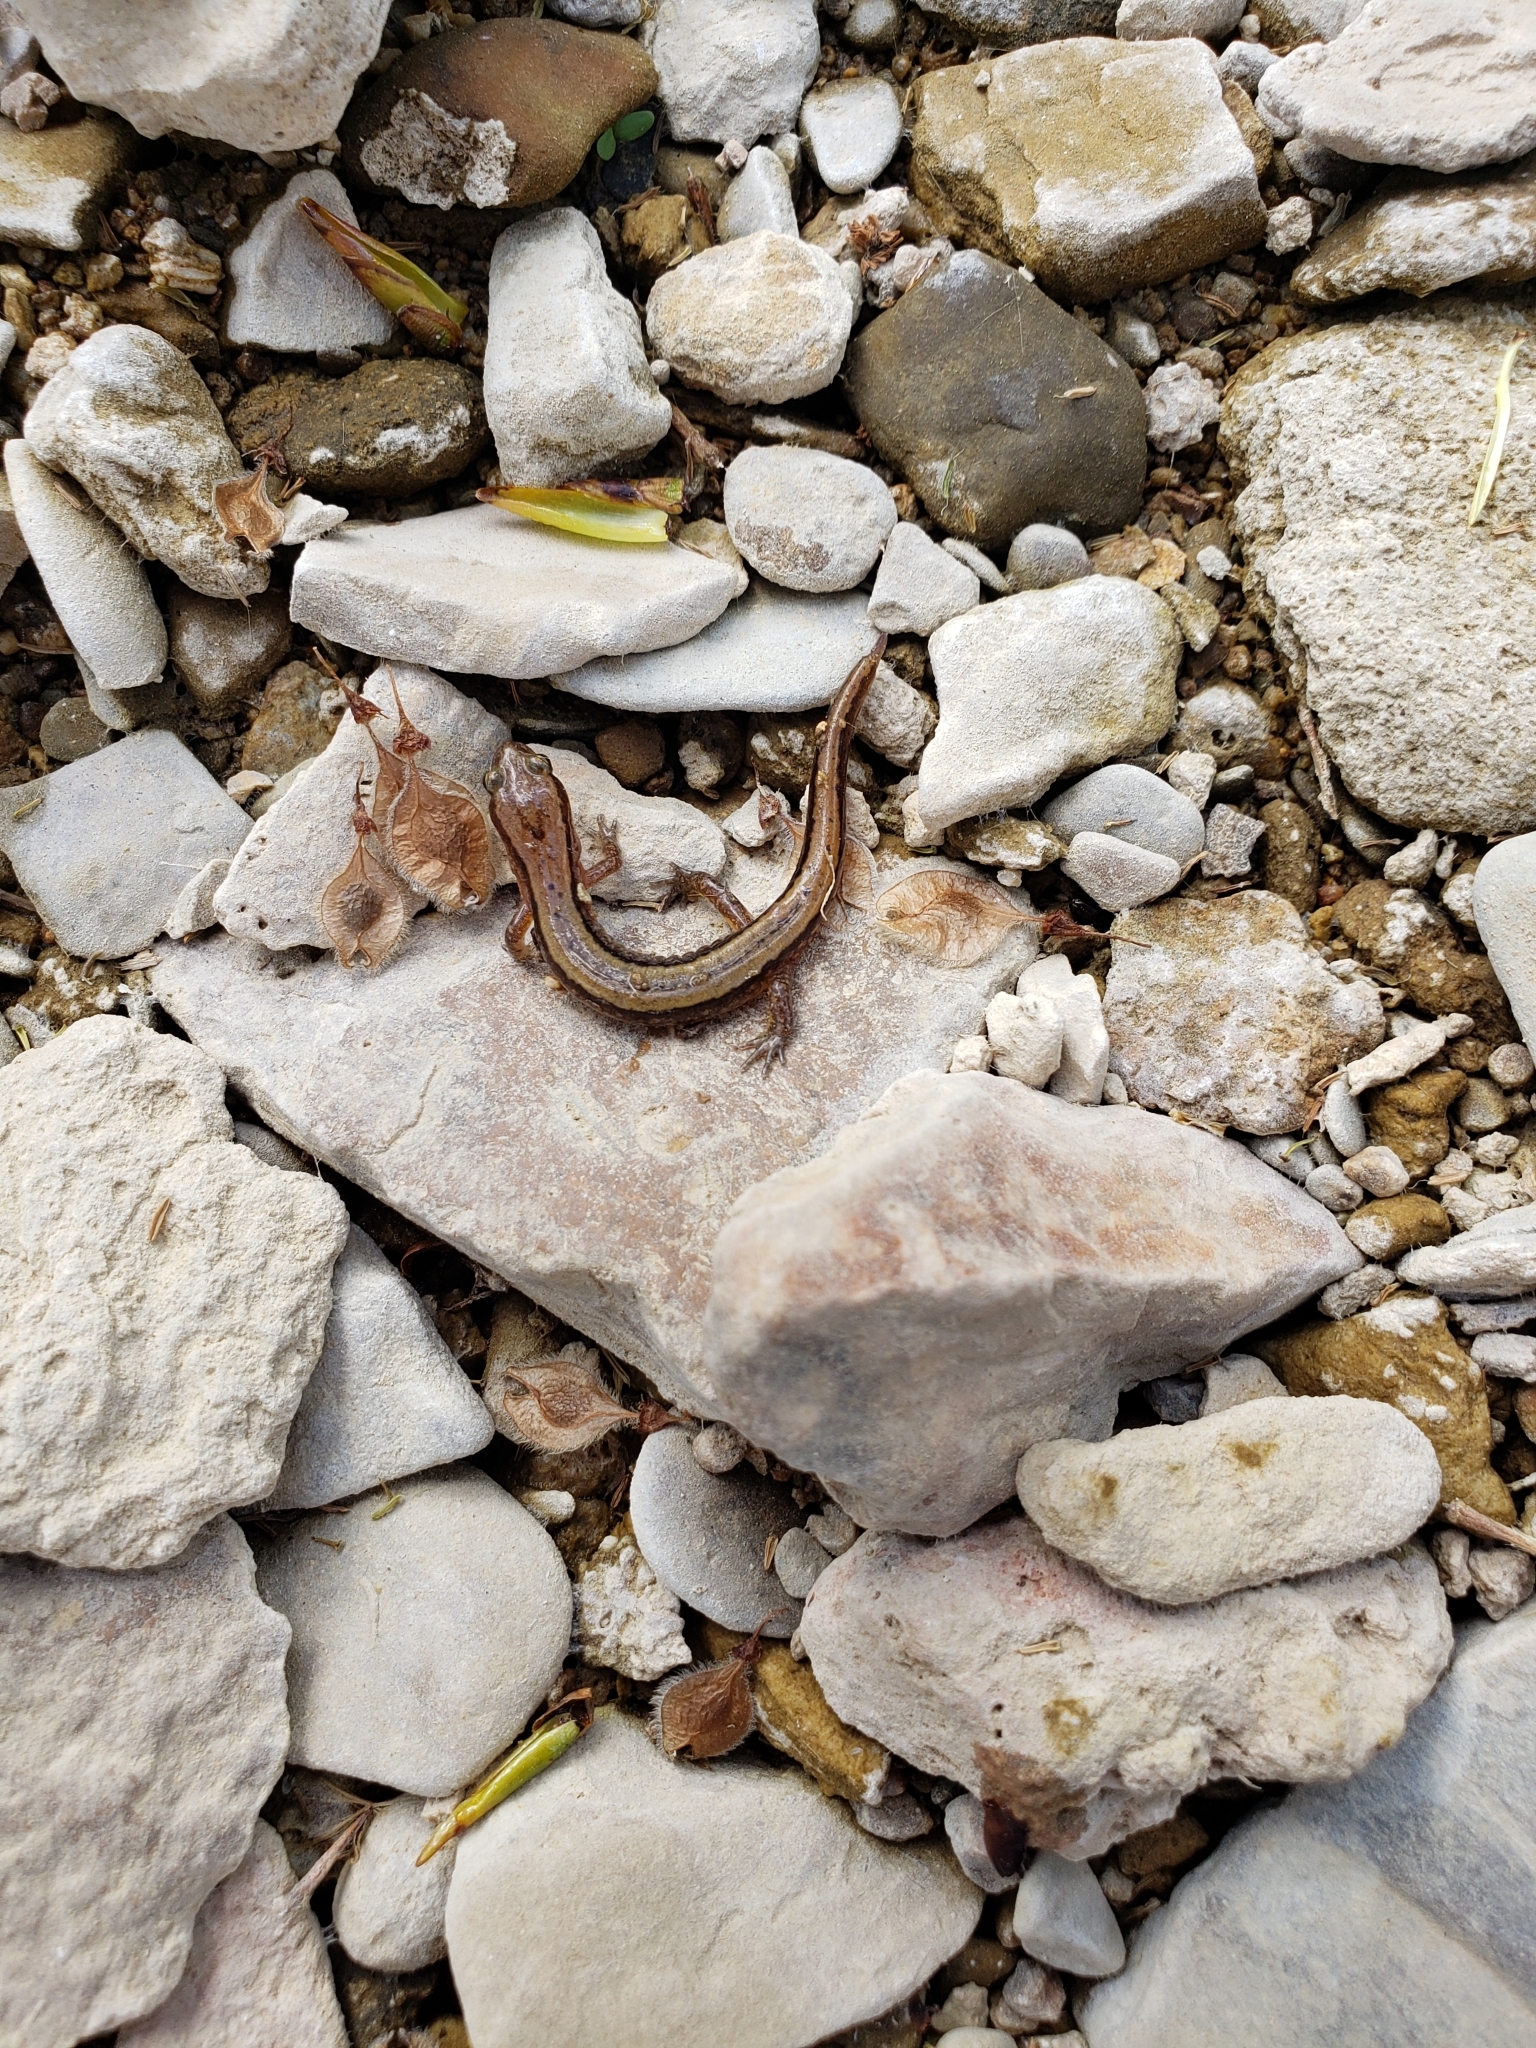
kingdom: Animalia
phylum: Chordata
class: Amphibia
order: Caudata
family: Plethodontidae
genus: Eurycea
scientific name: Eurycea cirrigera
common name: Southern two-lined salamander
